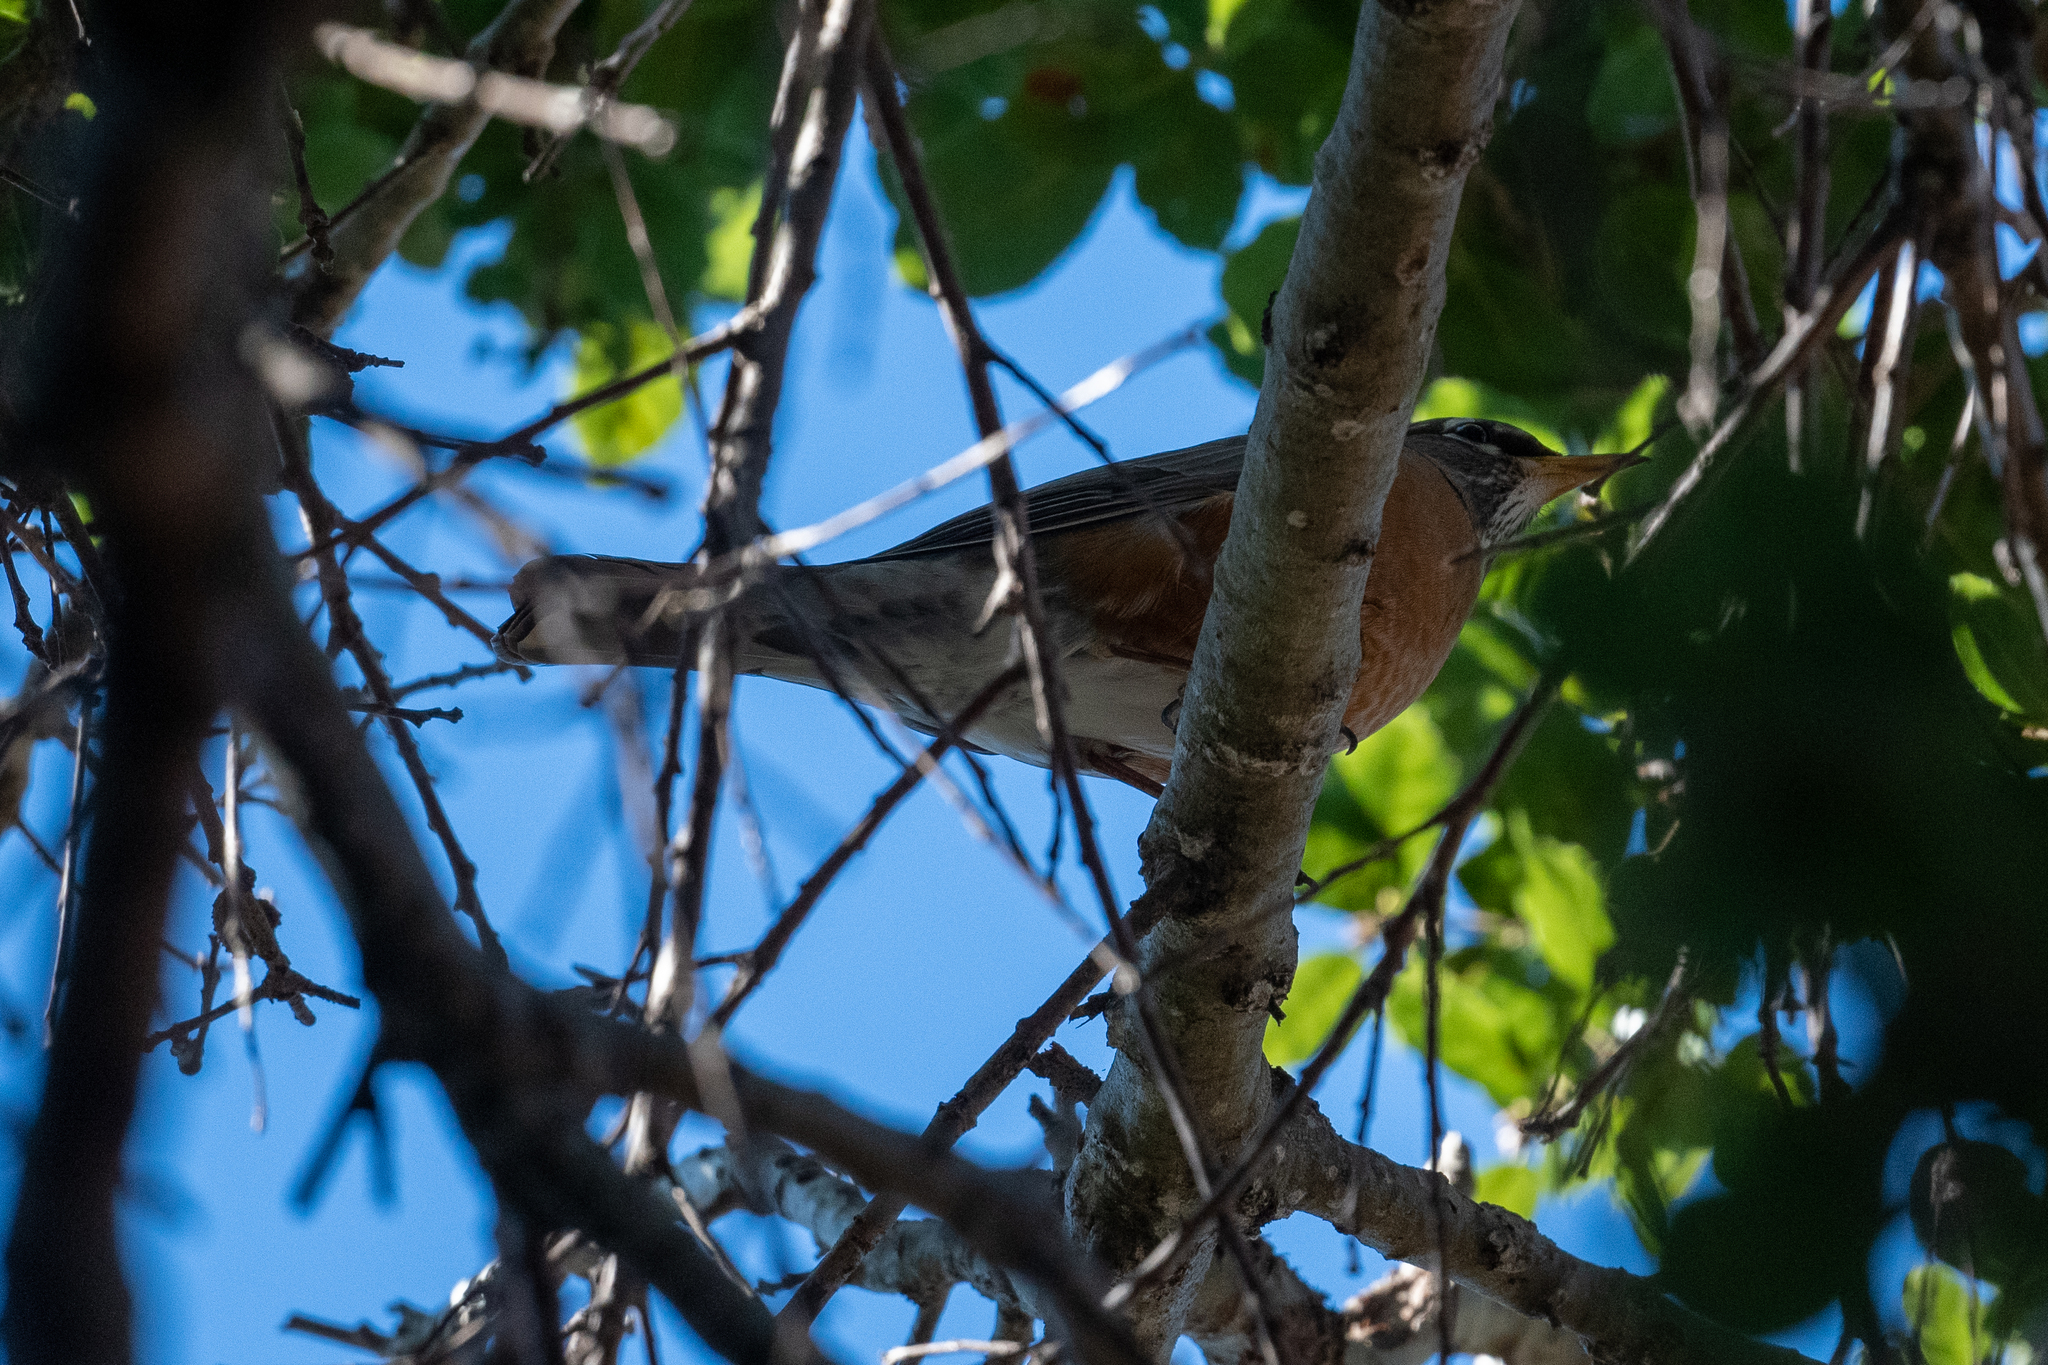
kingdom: Animalia
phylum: Chordata
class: Aves
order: Passeriformes
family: Turdidae
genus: Turdus
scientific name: Turdus migratorius
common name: American robin
